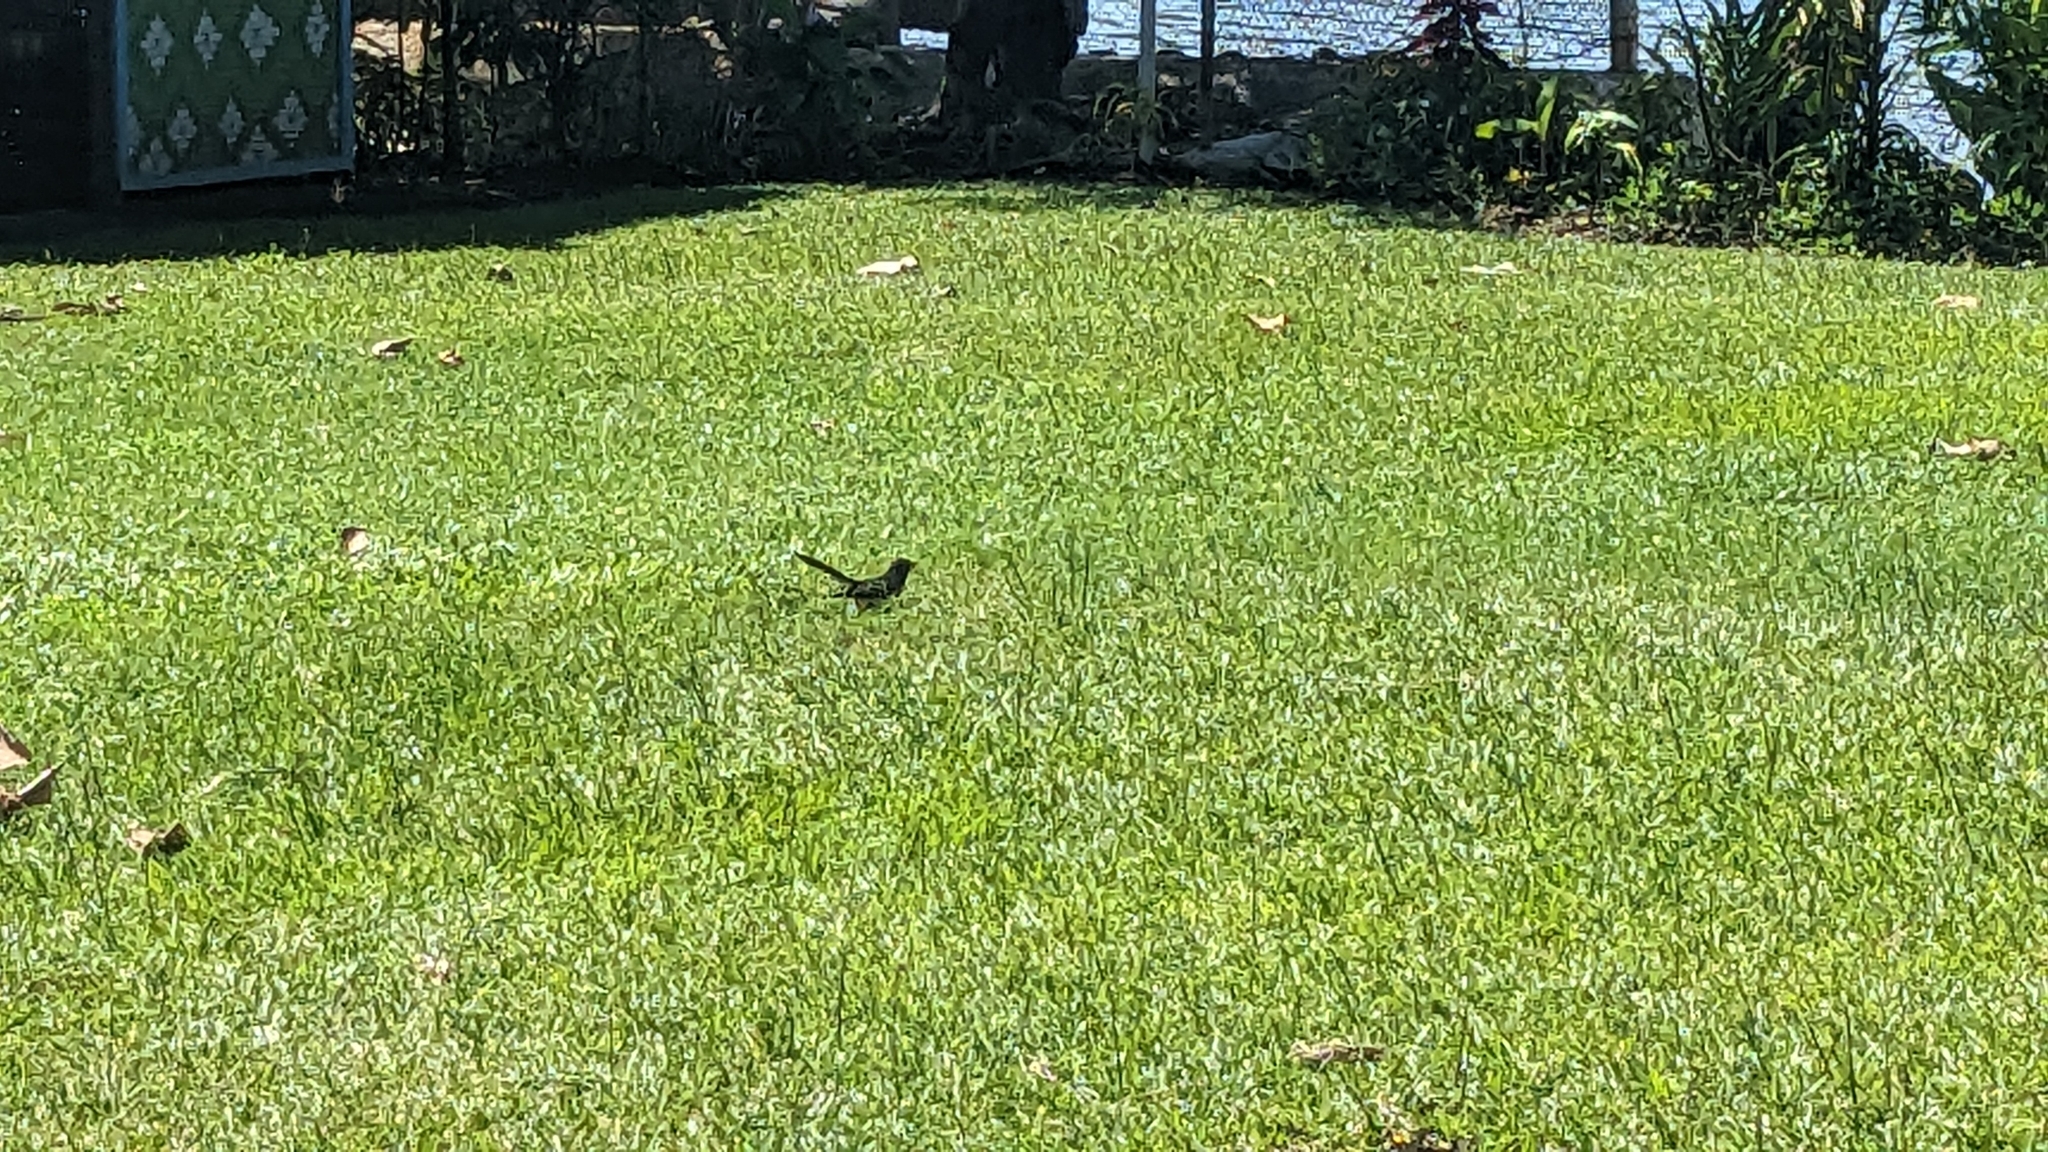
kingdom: Animalia
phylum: Chordata
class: Aves
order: Passeriformes
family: Rhipiduridae
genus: Rhipidura
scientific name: Rhipidura leucophrys
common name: Willie wagtail
